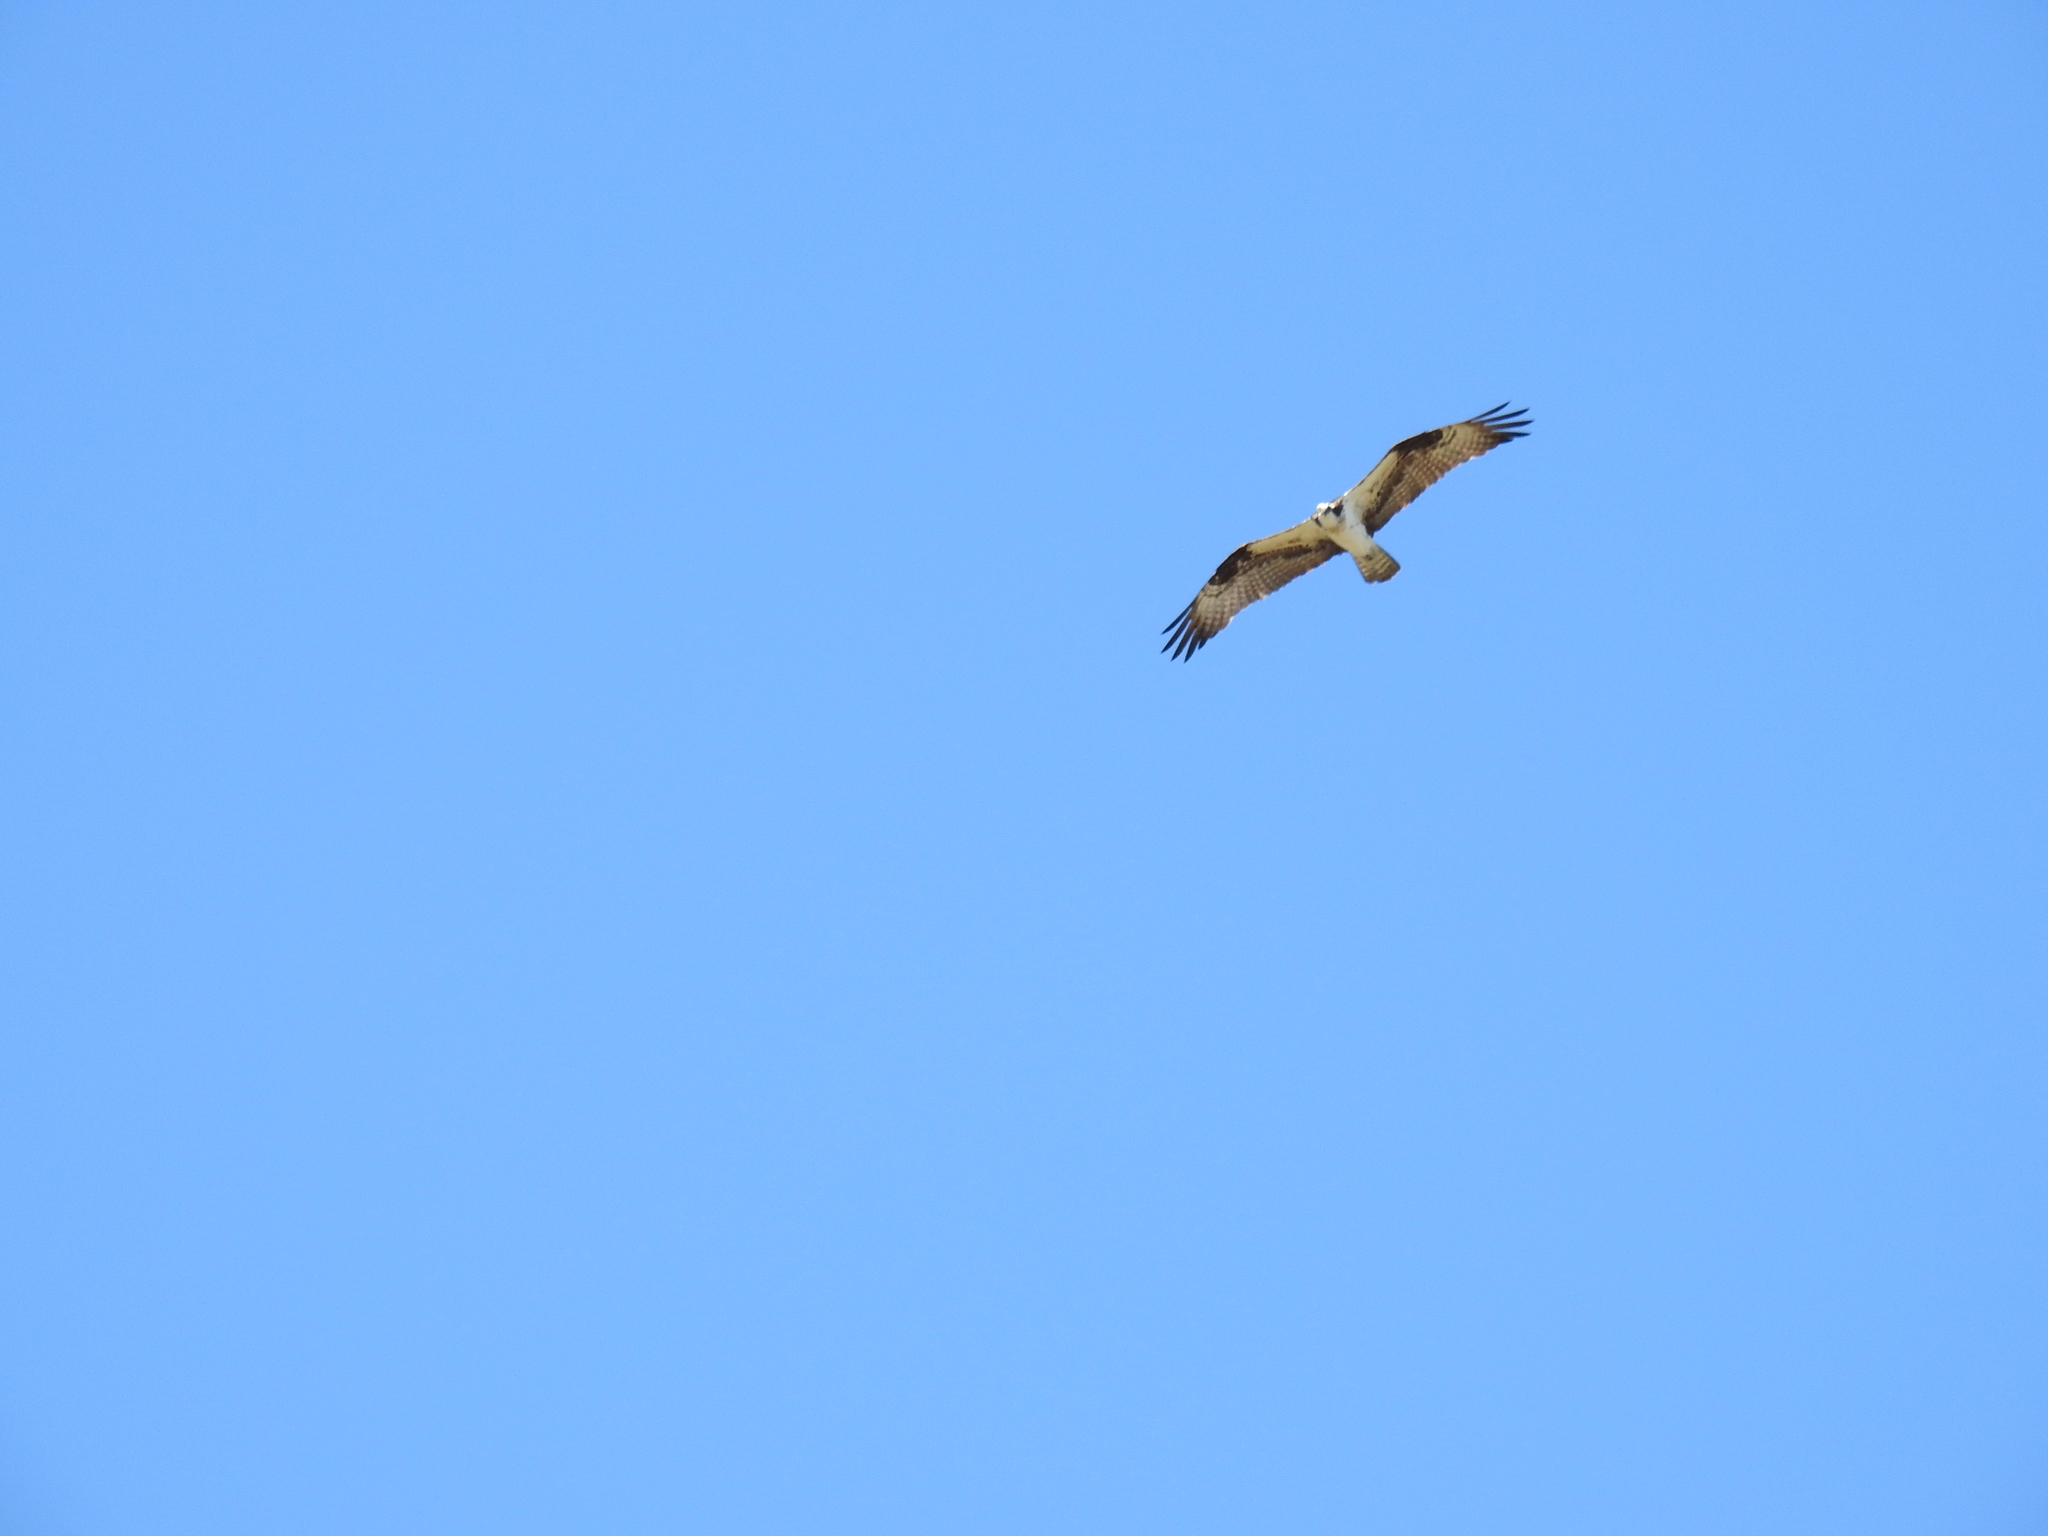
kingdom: Animalia
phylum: Chordata
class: Aves
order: Accipitriformes
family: Pandionidae
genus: Pandion
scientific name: Pandion haliaetus
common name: Osprey
